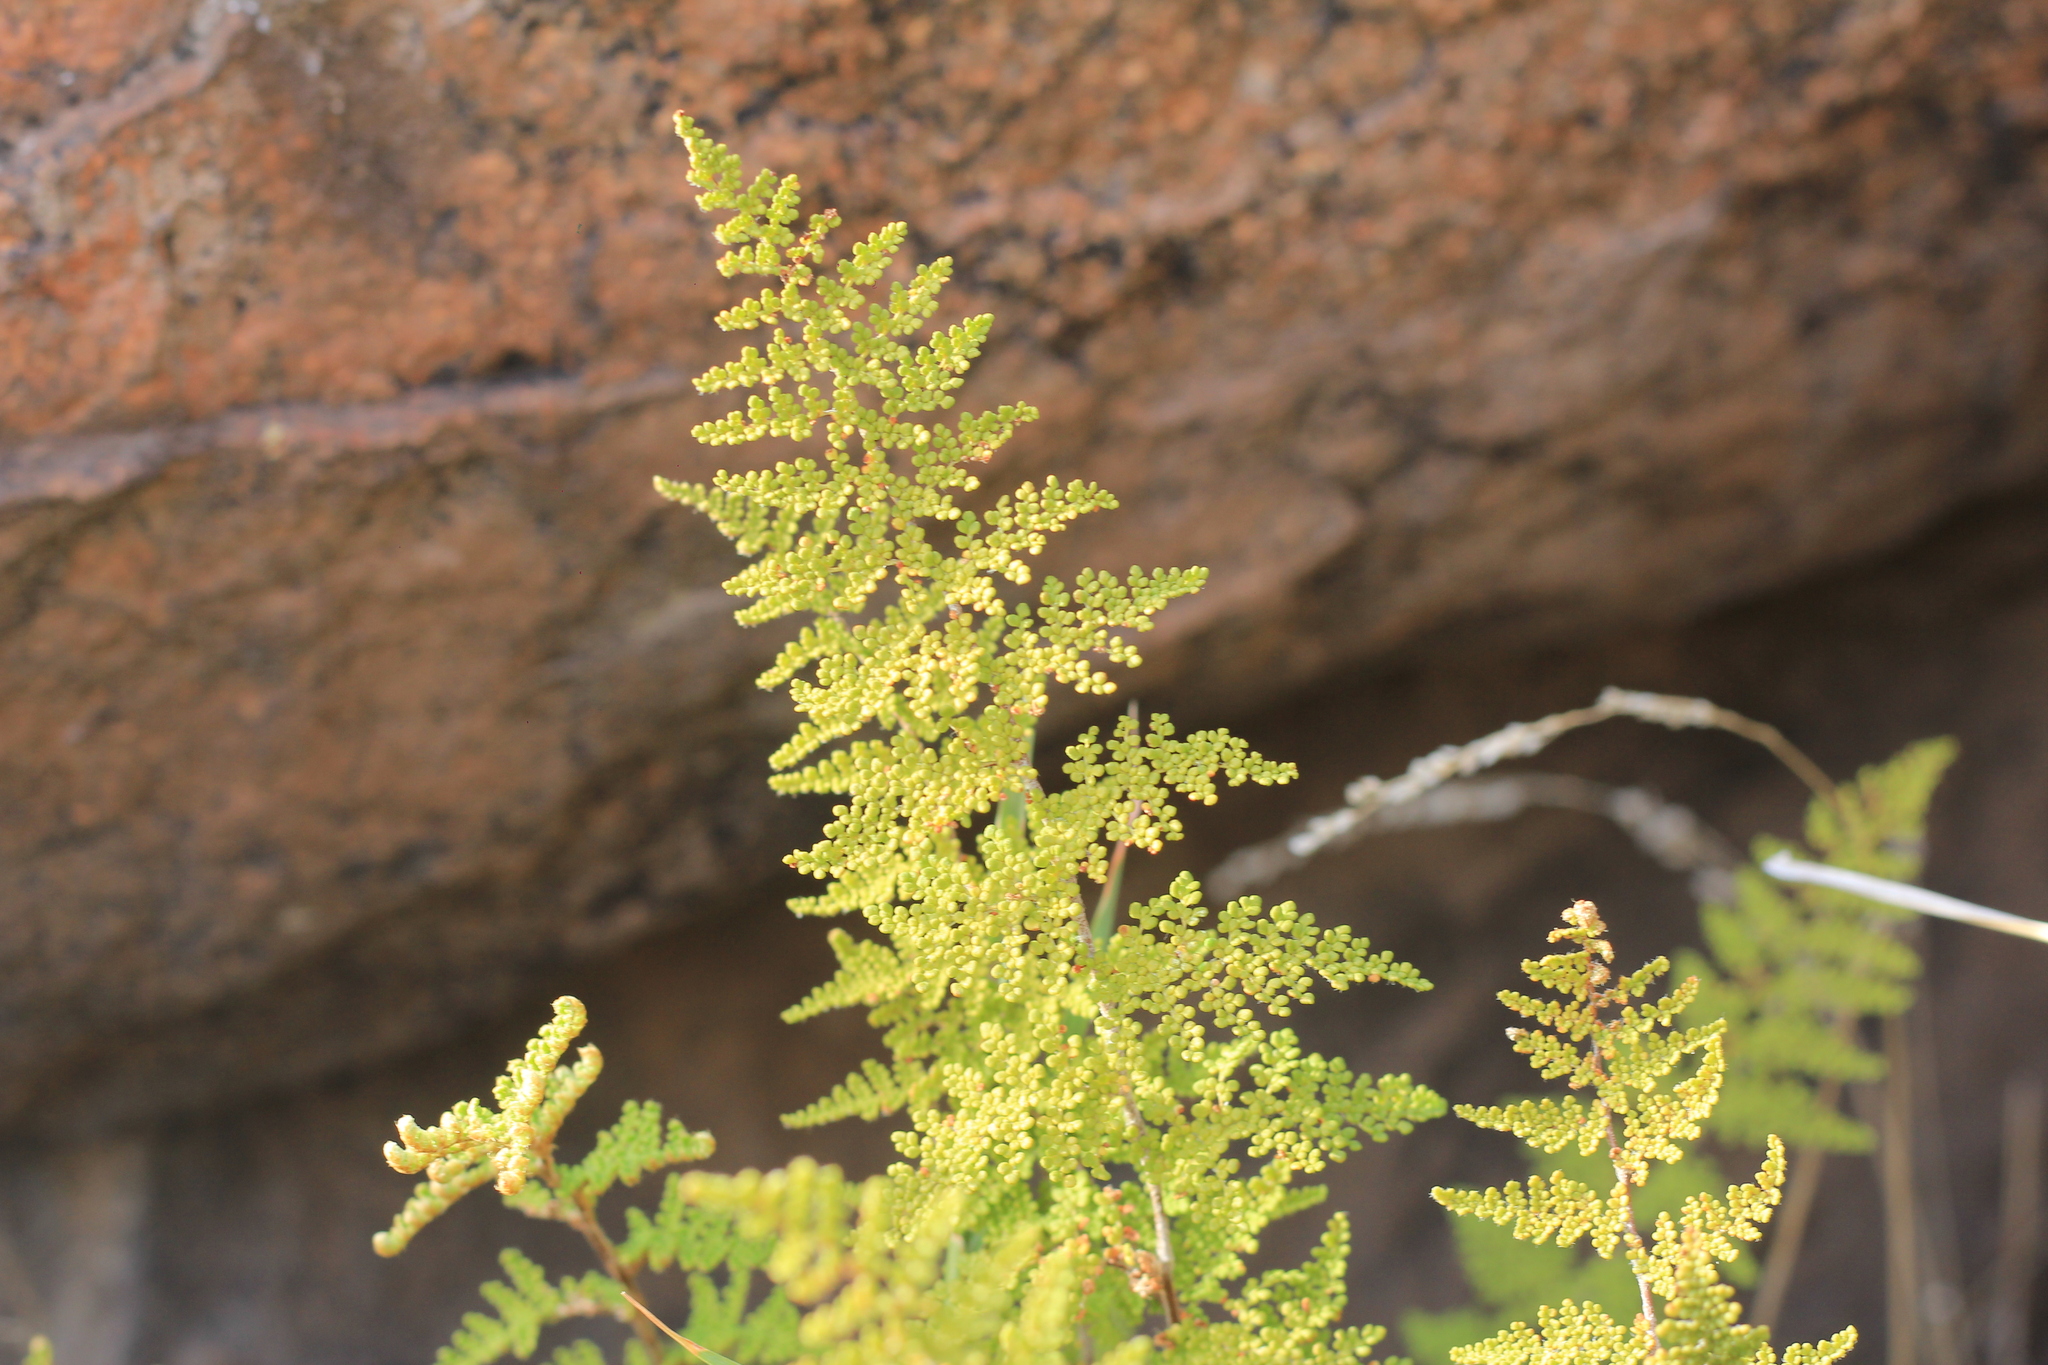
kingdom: Plantae
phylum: Tracheophyta
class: Polypodiopsida
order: Polypodiales
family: Pteridaceae
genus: Myriopteris
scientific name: Myriopteris myriophylla
